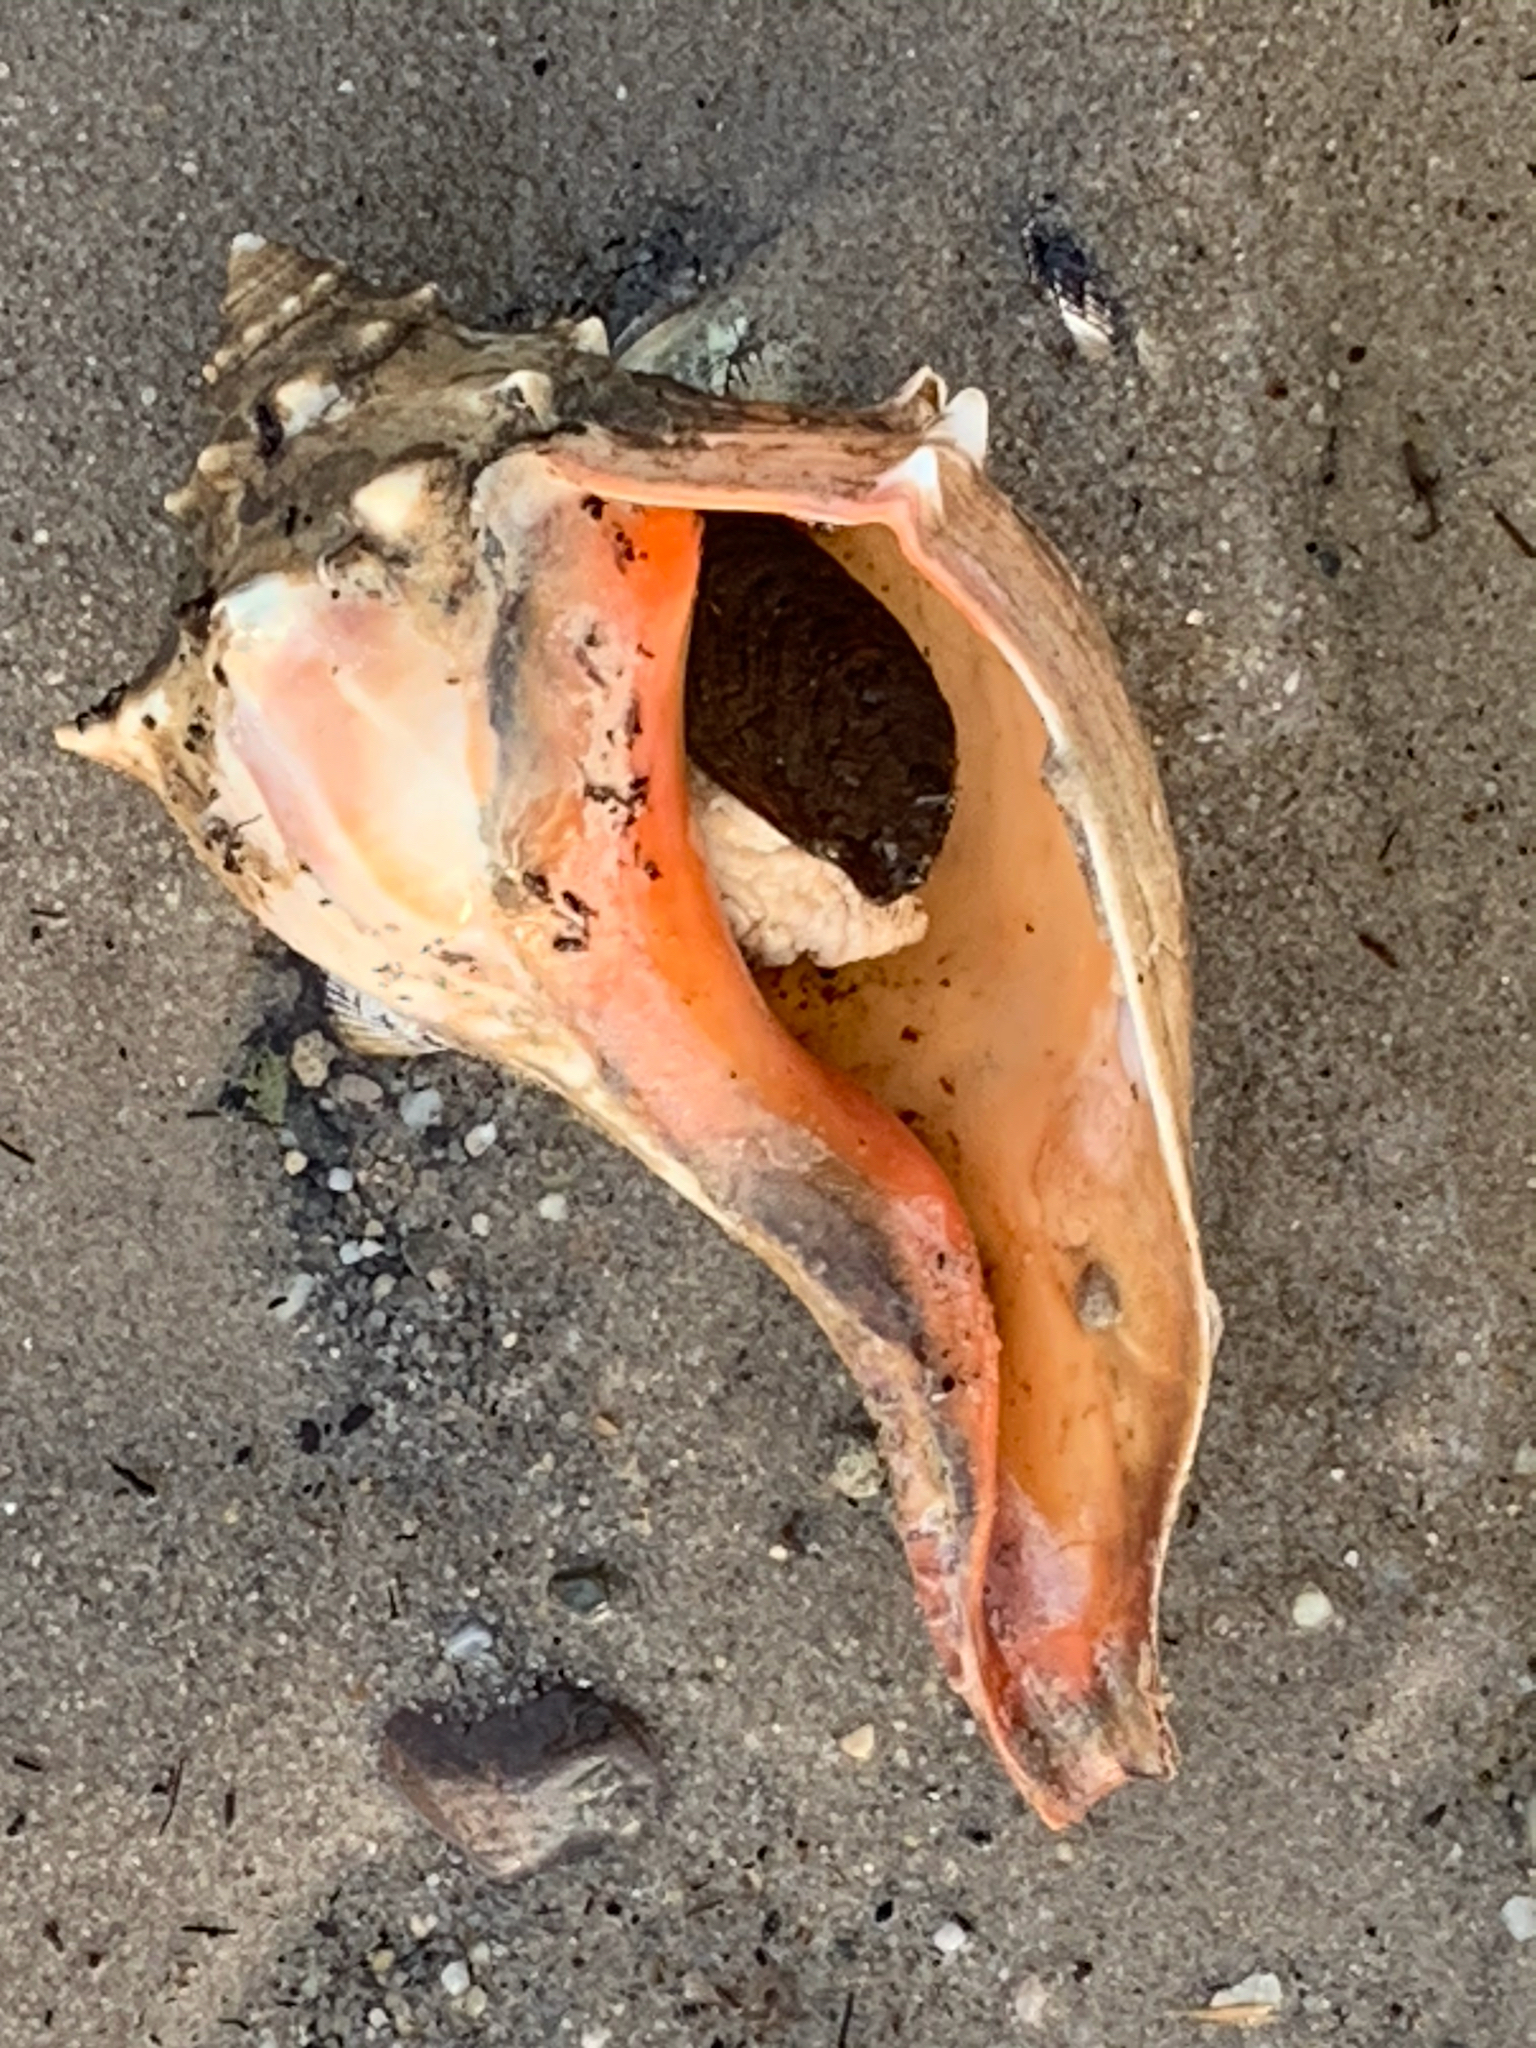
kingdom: Animalia
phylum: Mollusca
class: Gastropoda
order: Neogastropoda
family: Busyconidae
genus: Busycon
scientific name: Busycon carica
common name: Knobbed whelk
